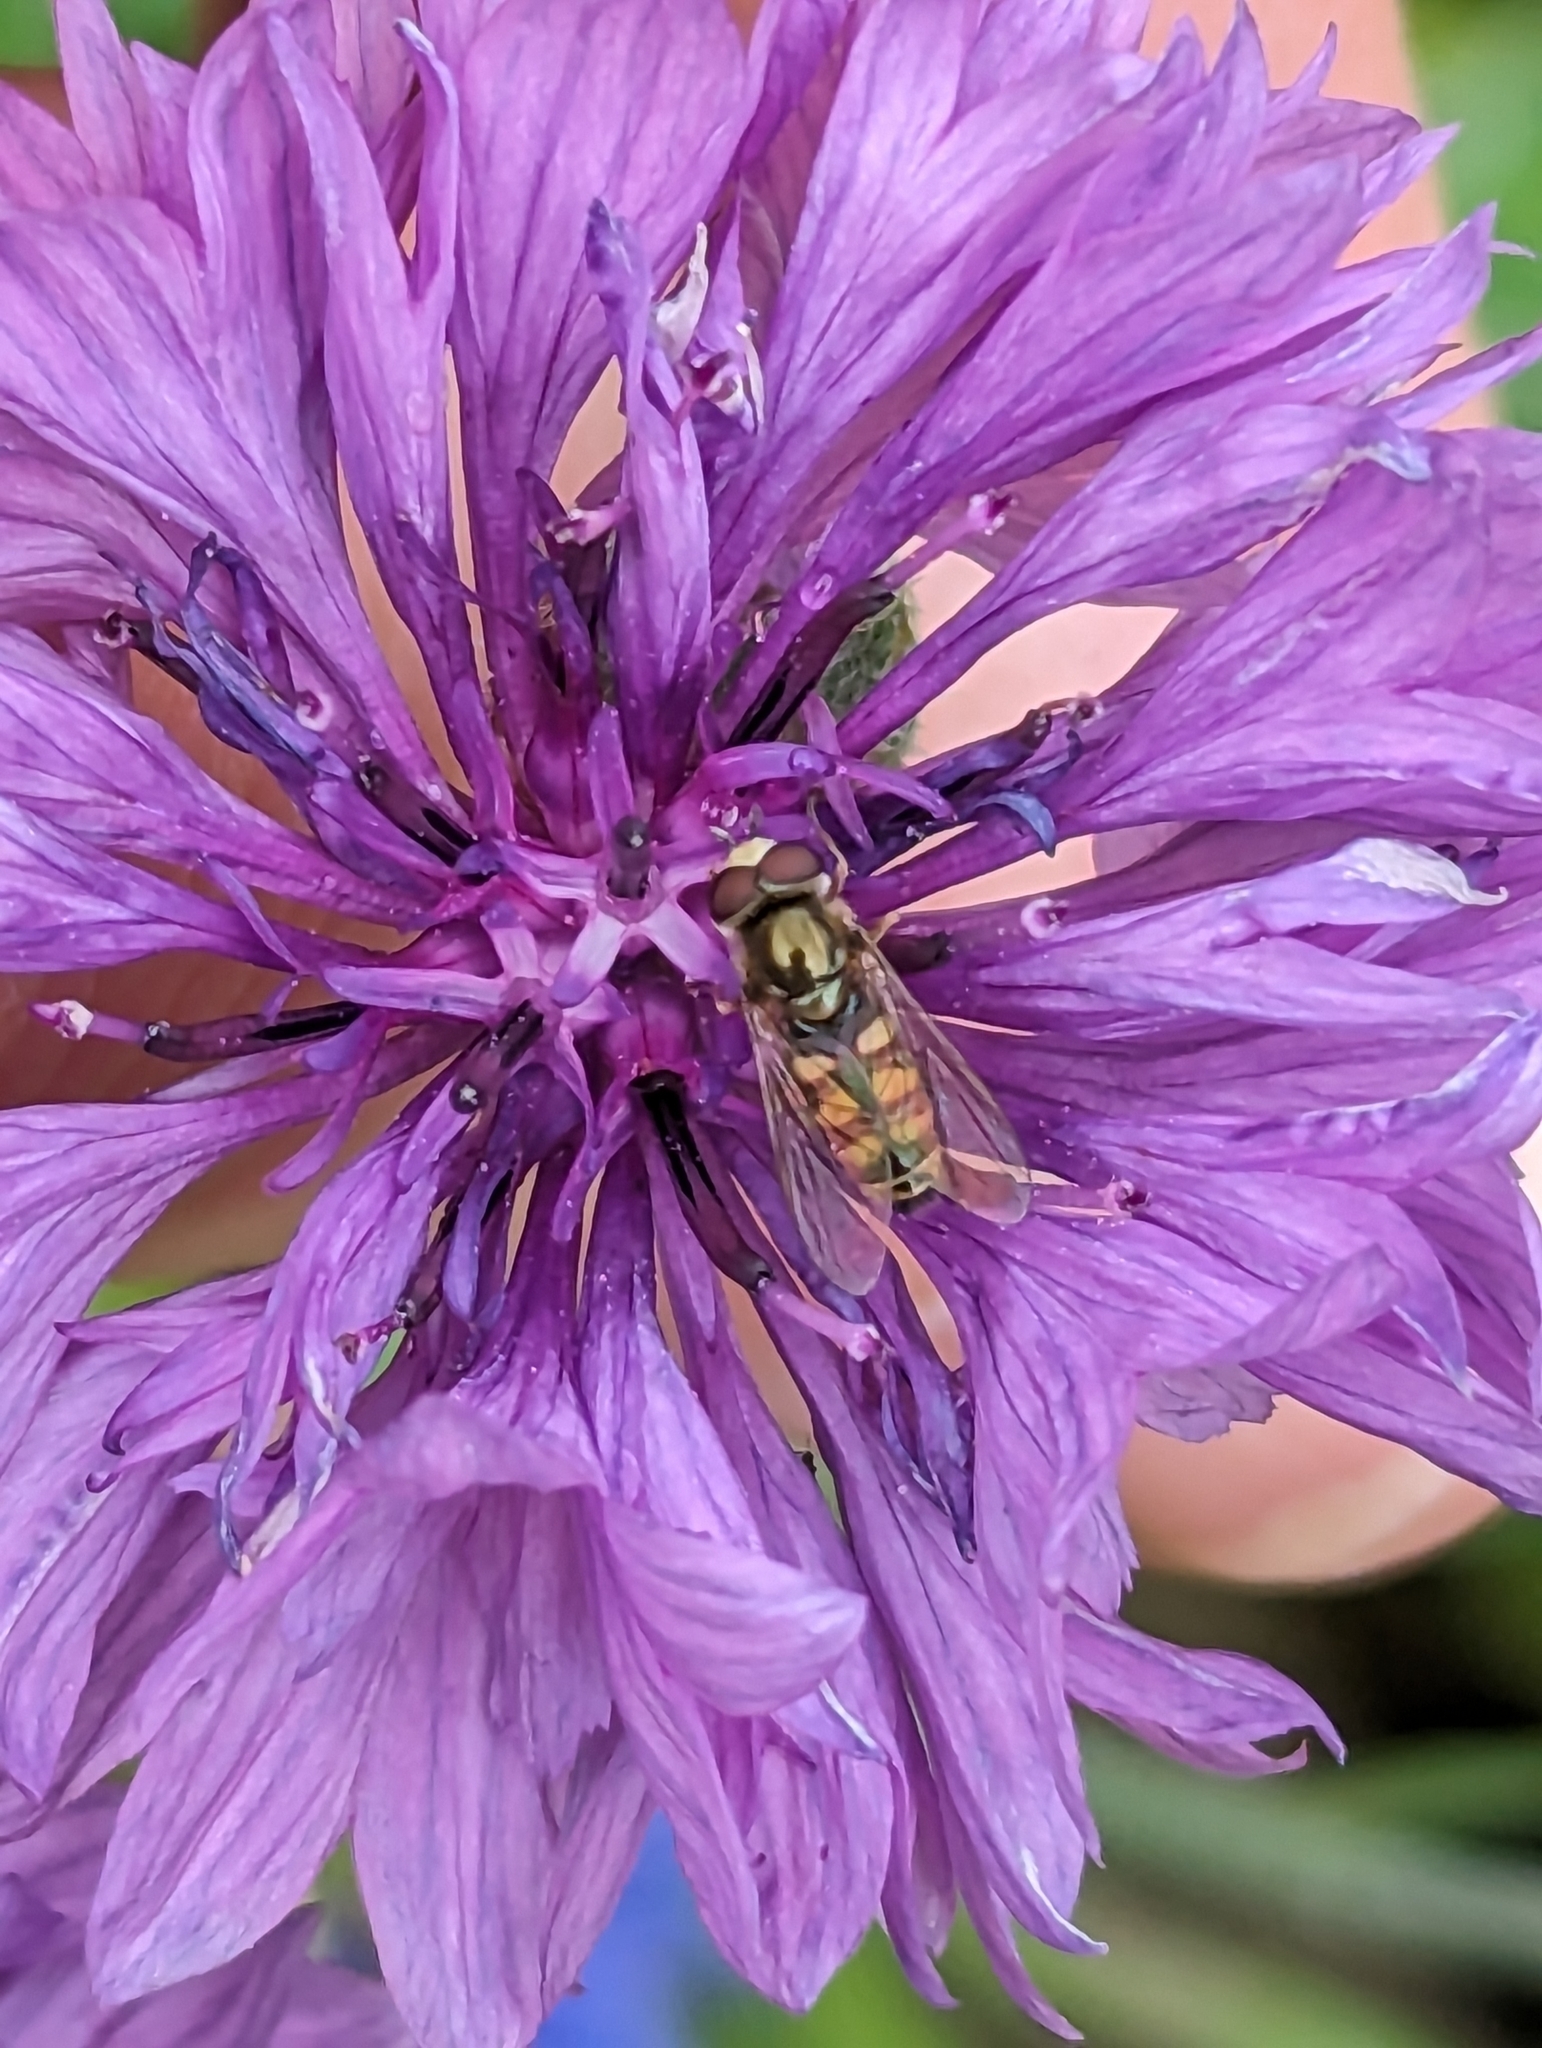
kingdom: Animalia
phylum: Arthropoda
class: Insecta
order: Diptera
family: Syrphidae
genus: Eupeodes
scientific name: Eupeodes
